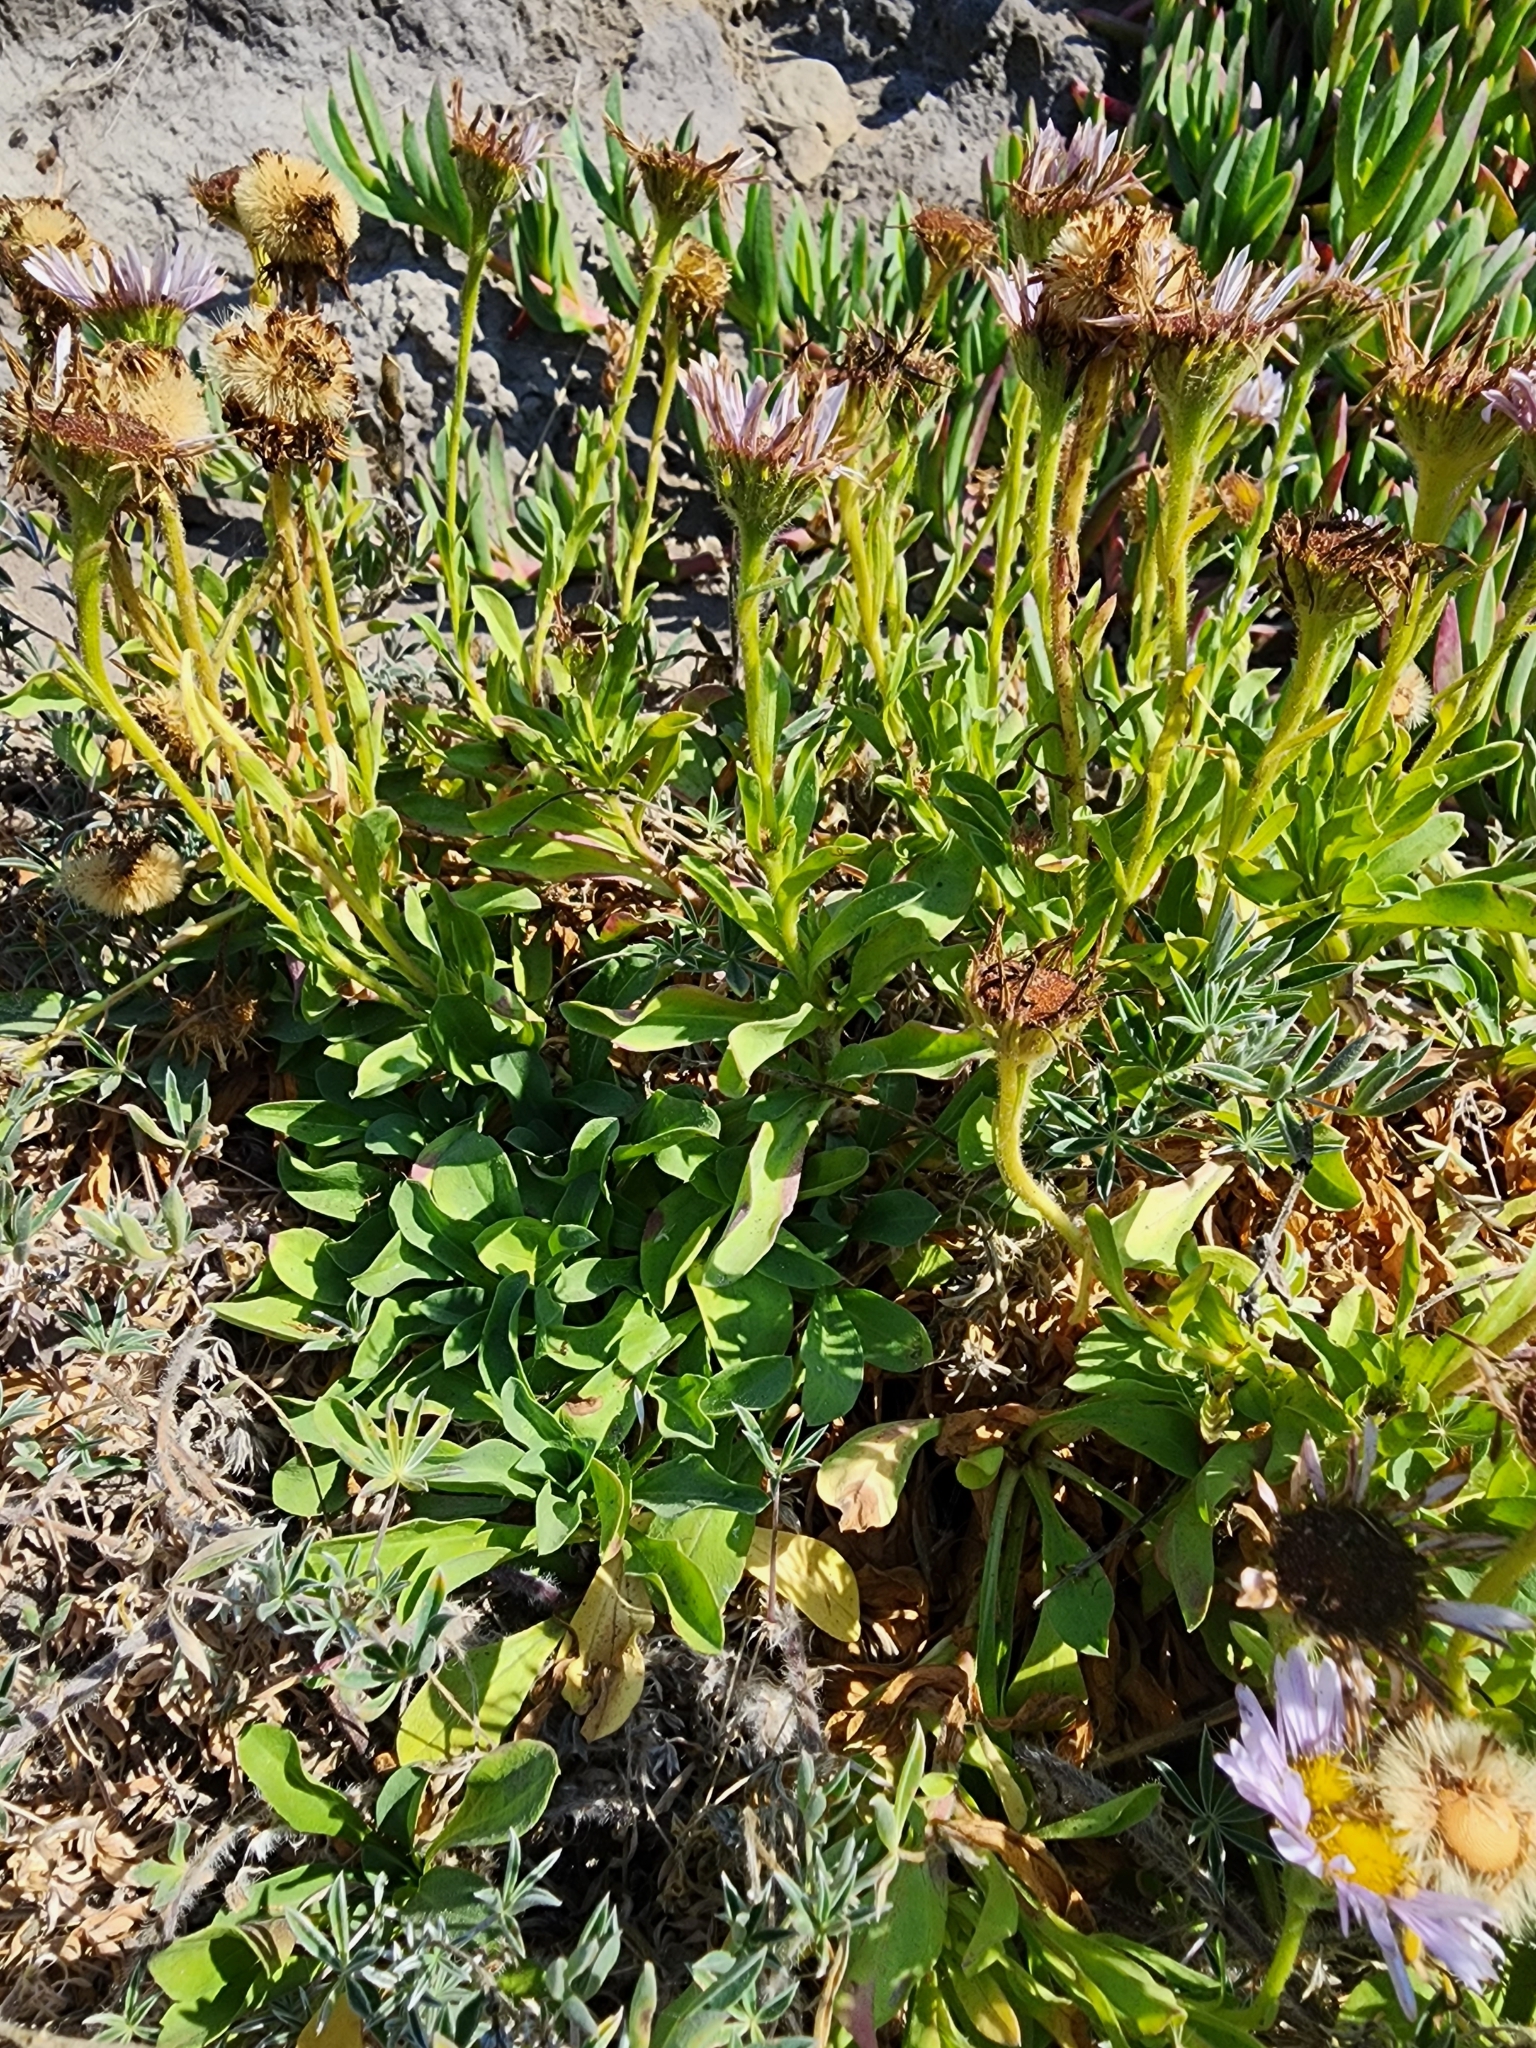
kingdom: Plantae
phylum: Tracheophyta
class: Magnoliopsida
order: Asterales
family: Asteraceae
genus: Erigeron
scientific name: Erigeron glaucus
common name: Seaside daisy
